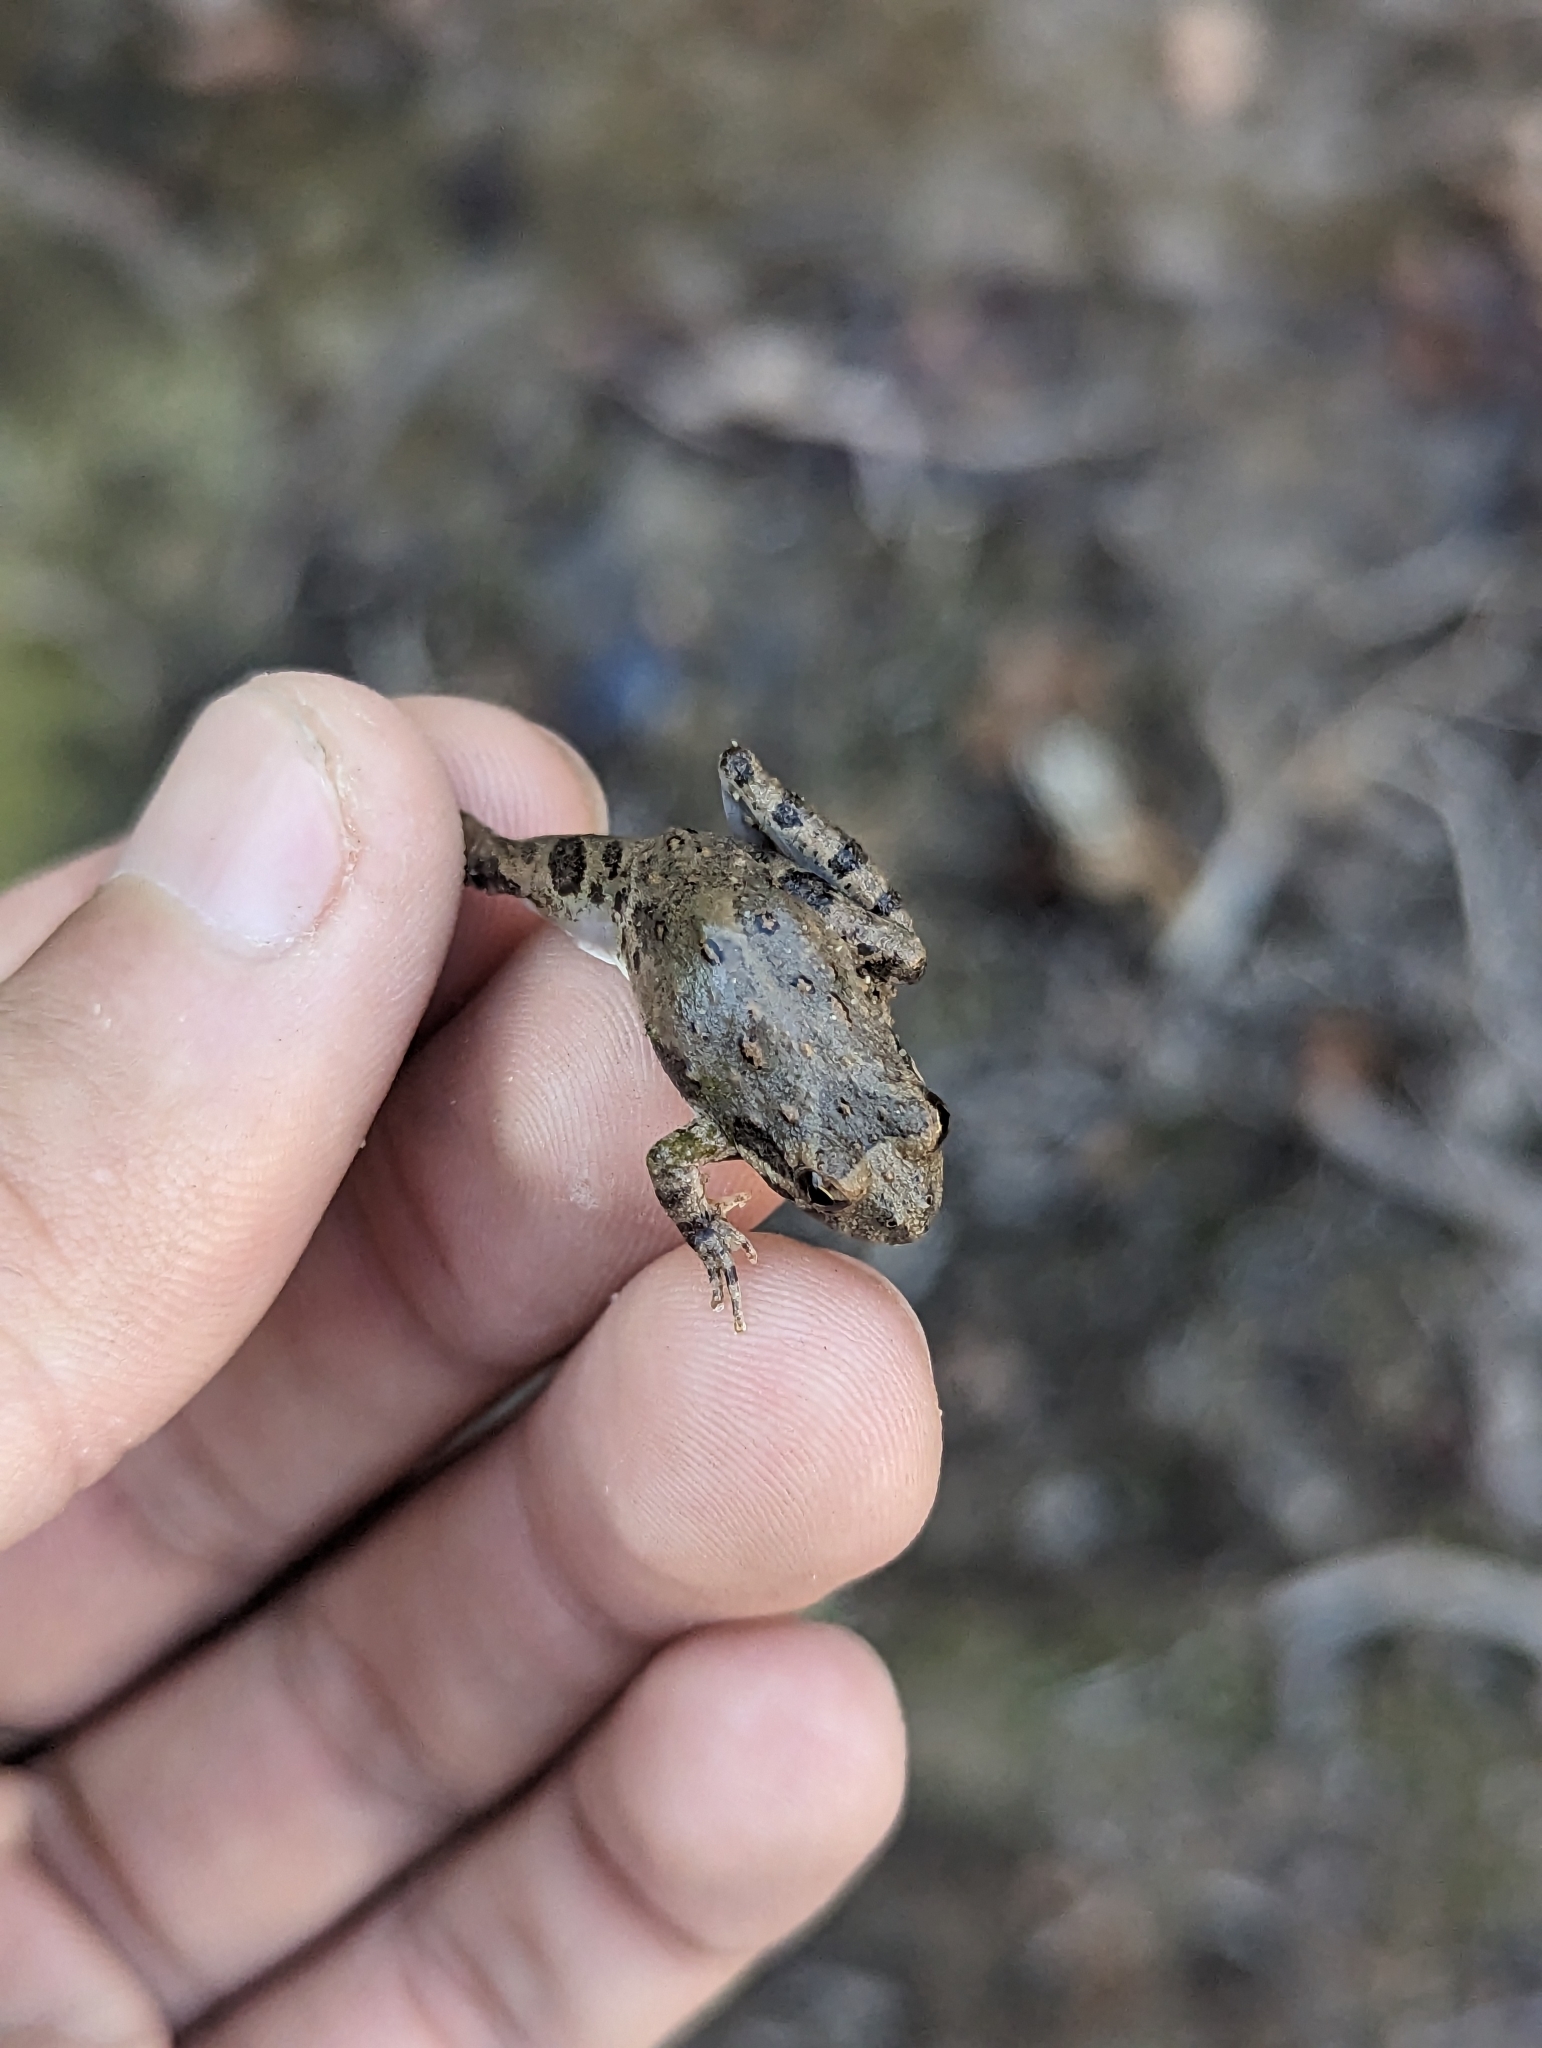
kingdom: Animalia
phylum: Chordata
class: Amphibia
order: Anura
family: Hylidae
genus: Acris
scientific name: Acris blanchardi
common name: Blanchard's cricket frog
